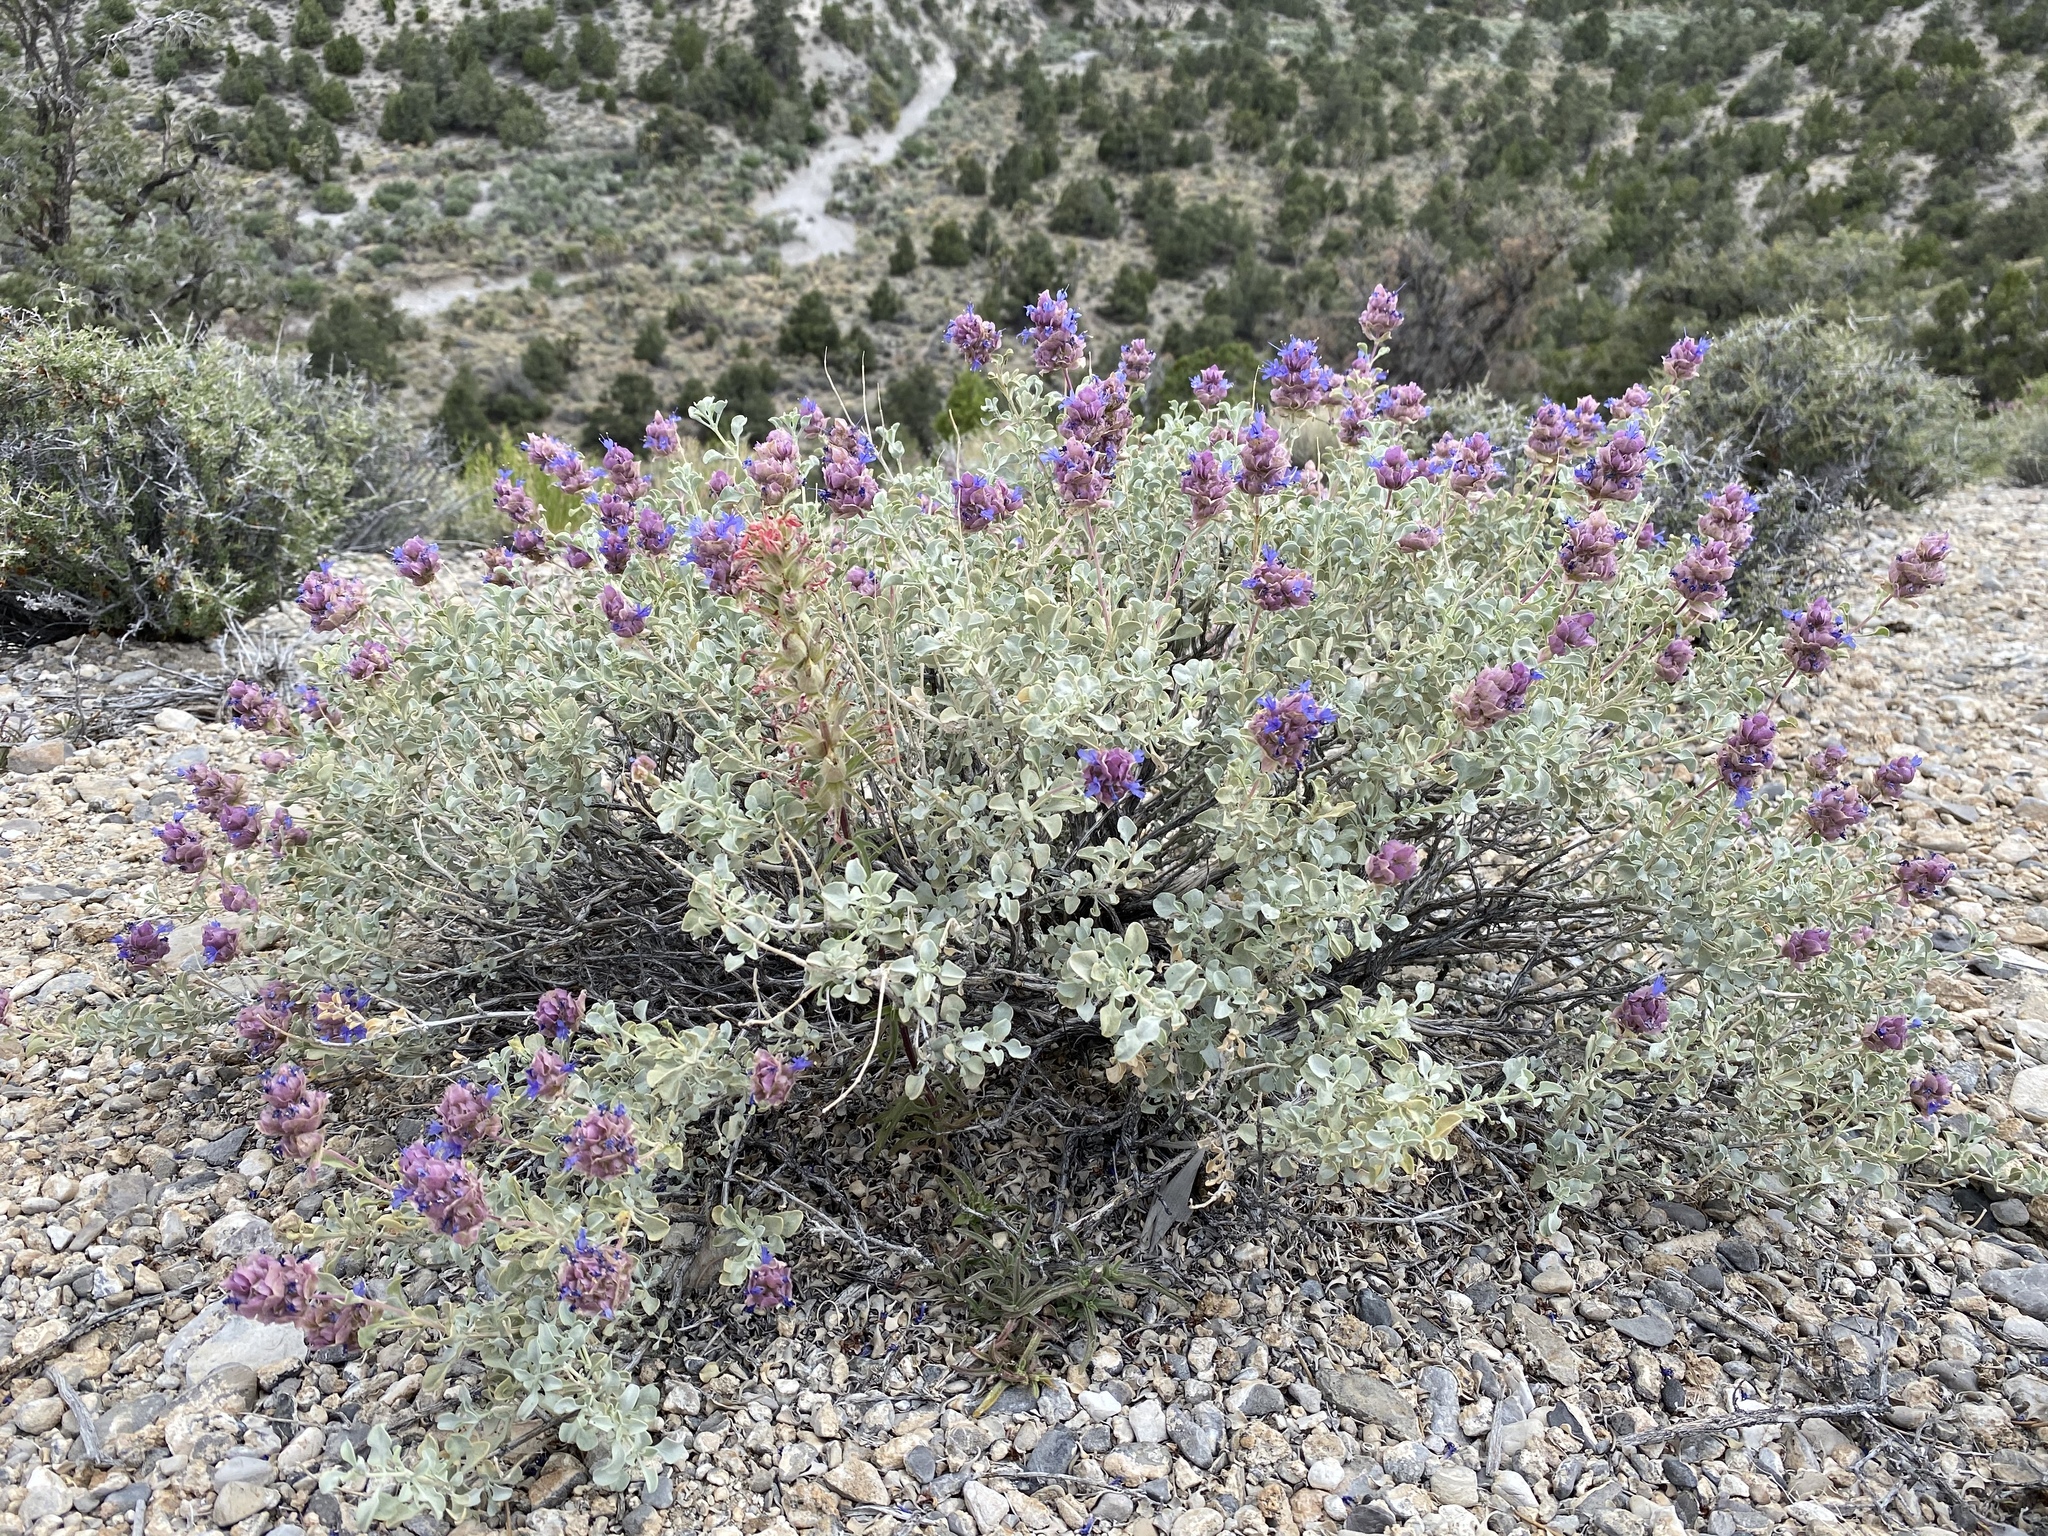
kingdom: Plantae
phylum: Tracheophyta
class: Magnoliopsida
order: Lamiales
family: Lamiaceae
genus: Salvia
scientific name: Salvia dorrii
